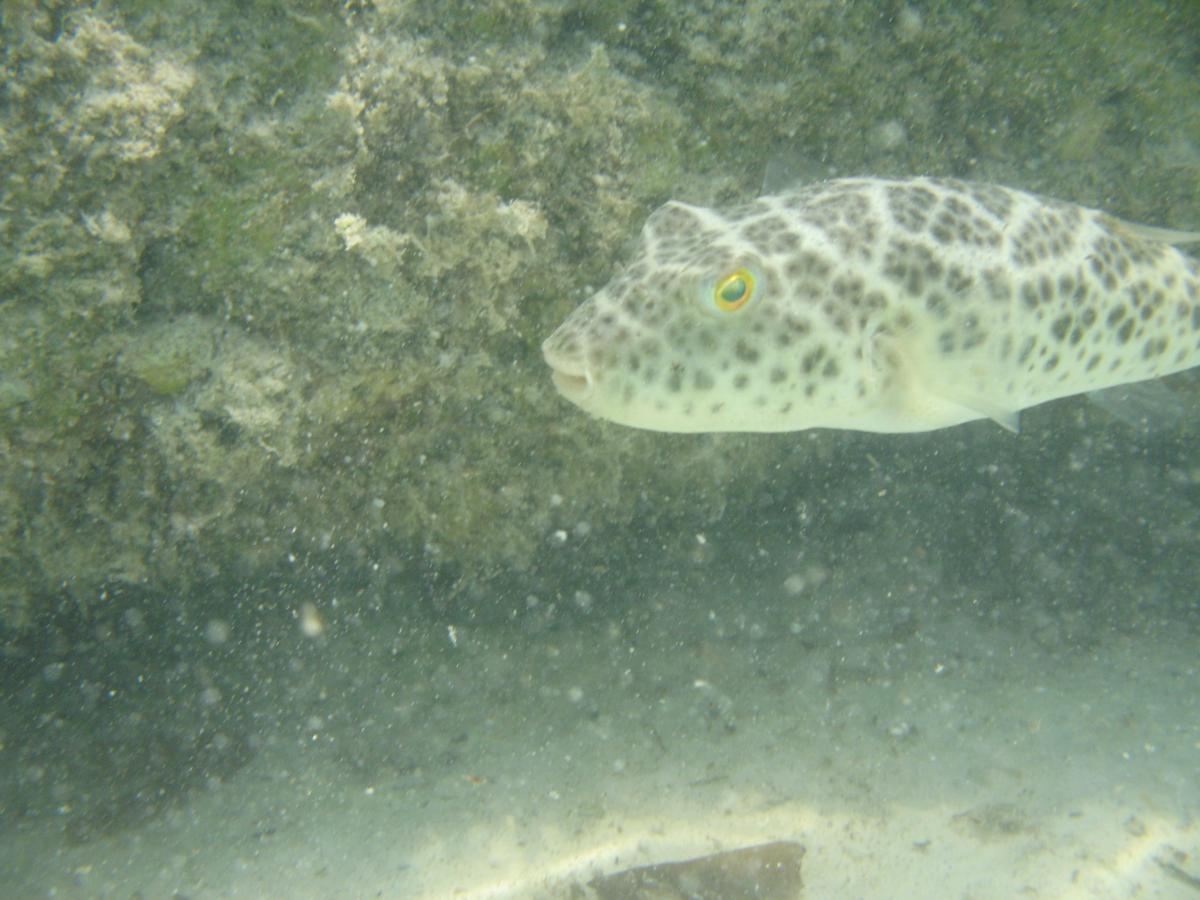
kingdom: Animalia
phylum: Chordata
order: Tetraodontiformes
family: Tetraodontidae
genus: Sphoeroides
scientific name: Sphoeroides testudineus
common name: Checkered puffer
